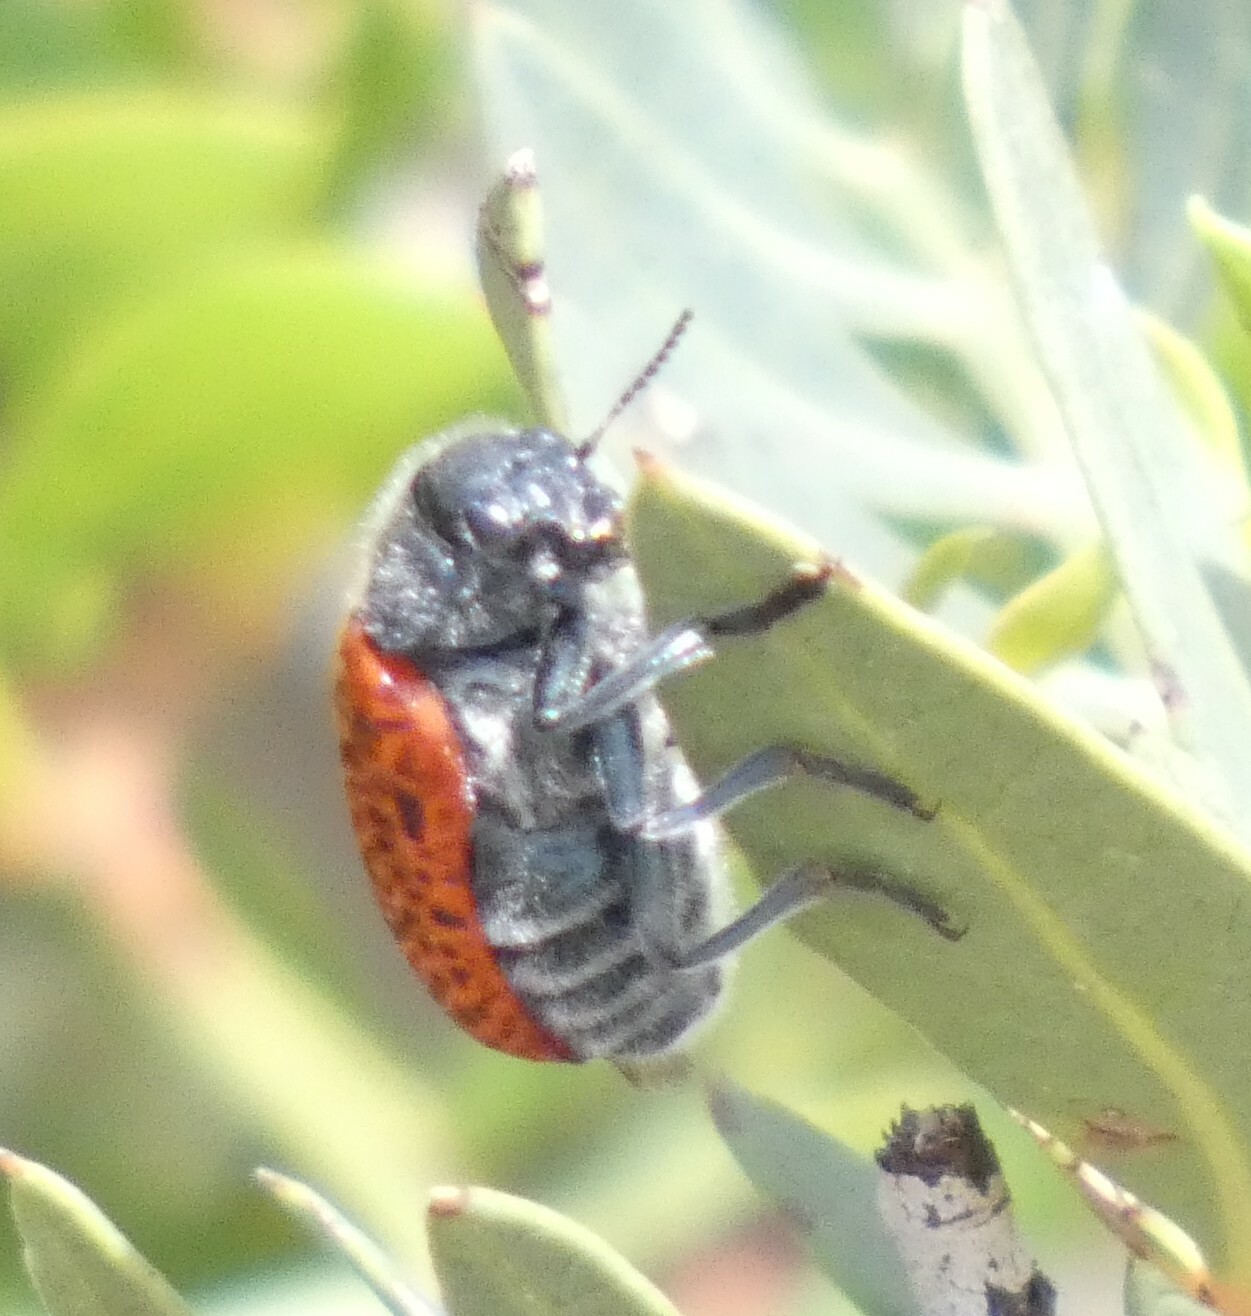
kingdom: Animalia
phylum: Arthropoda
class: Insecta
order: Coleoptera
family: Chrysomelidae
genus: Lachnaia
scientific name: Lachnaia variolosa
